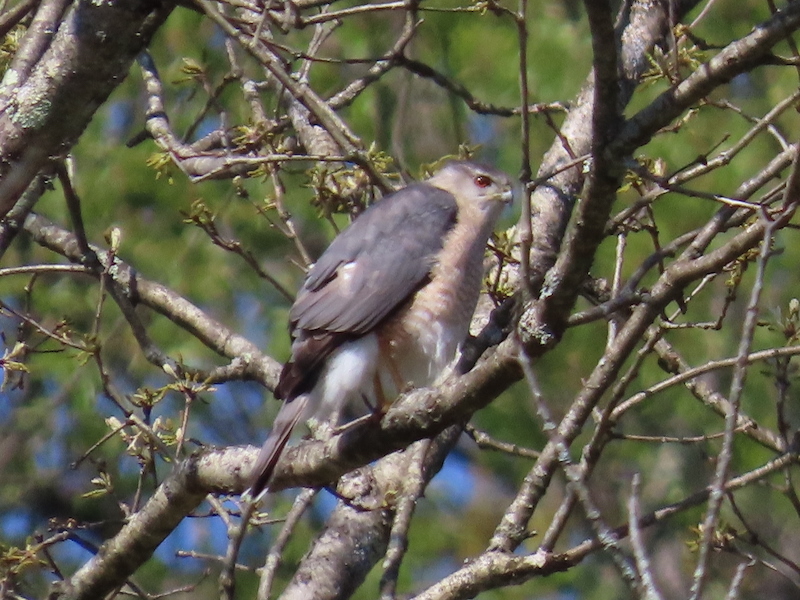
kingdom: Animalia
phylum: Chordata
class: Aves
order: Accipitriformes
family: Accipitridae
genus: Accipiter
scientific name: Accipiter cooperii
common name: Cooper's hawk
